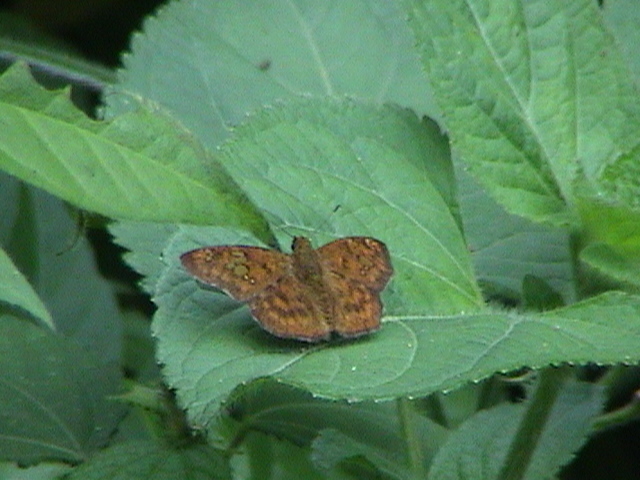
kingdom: Animalia
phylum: Arthropoda
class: Insecta
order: Lepidoptera
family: Hesperiidae
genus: Pseudocoladenia
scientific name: Pseudocoladenia dan
